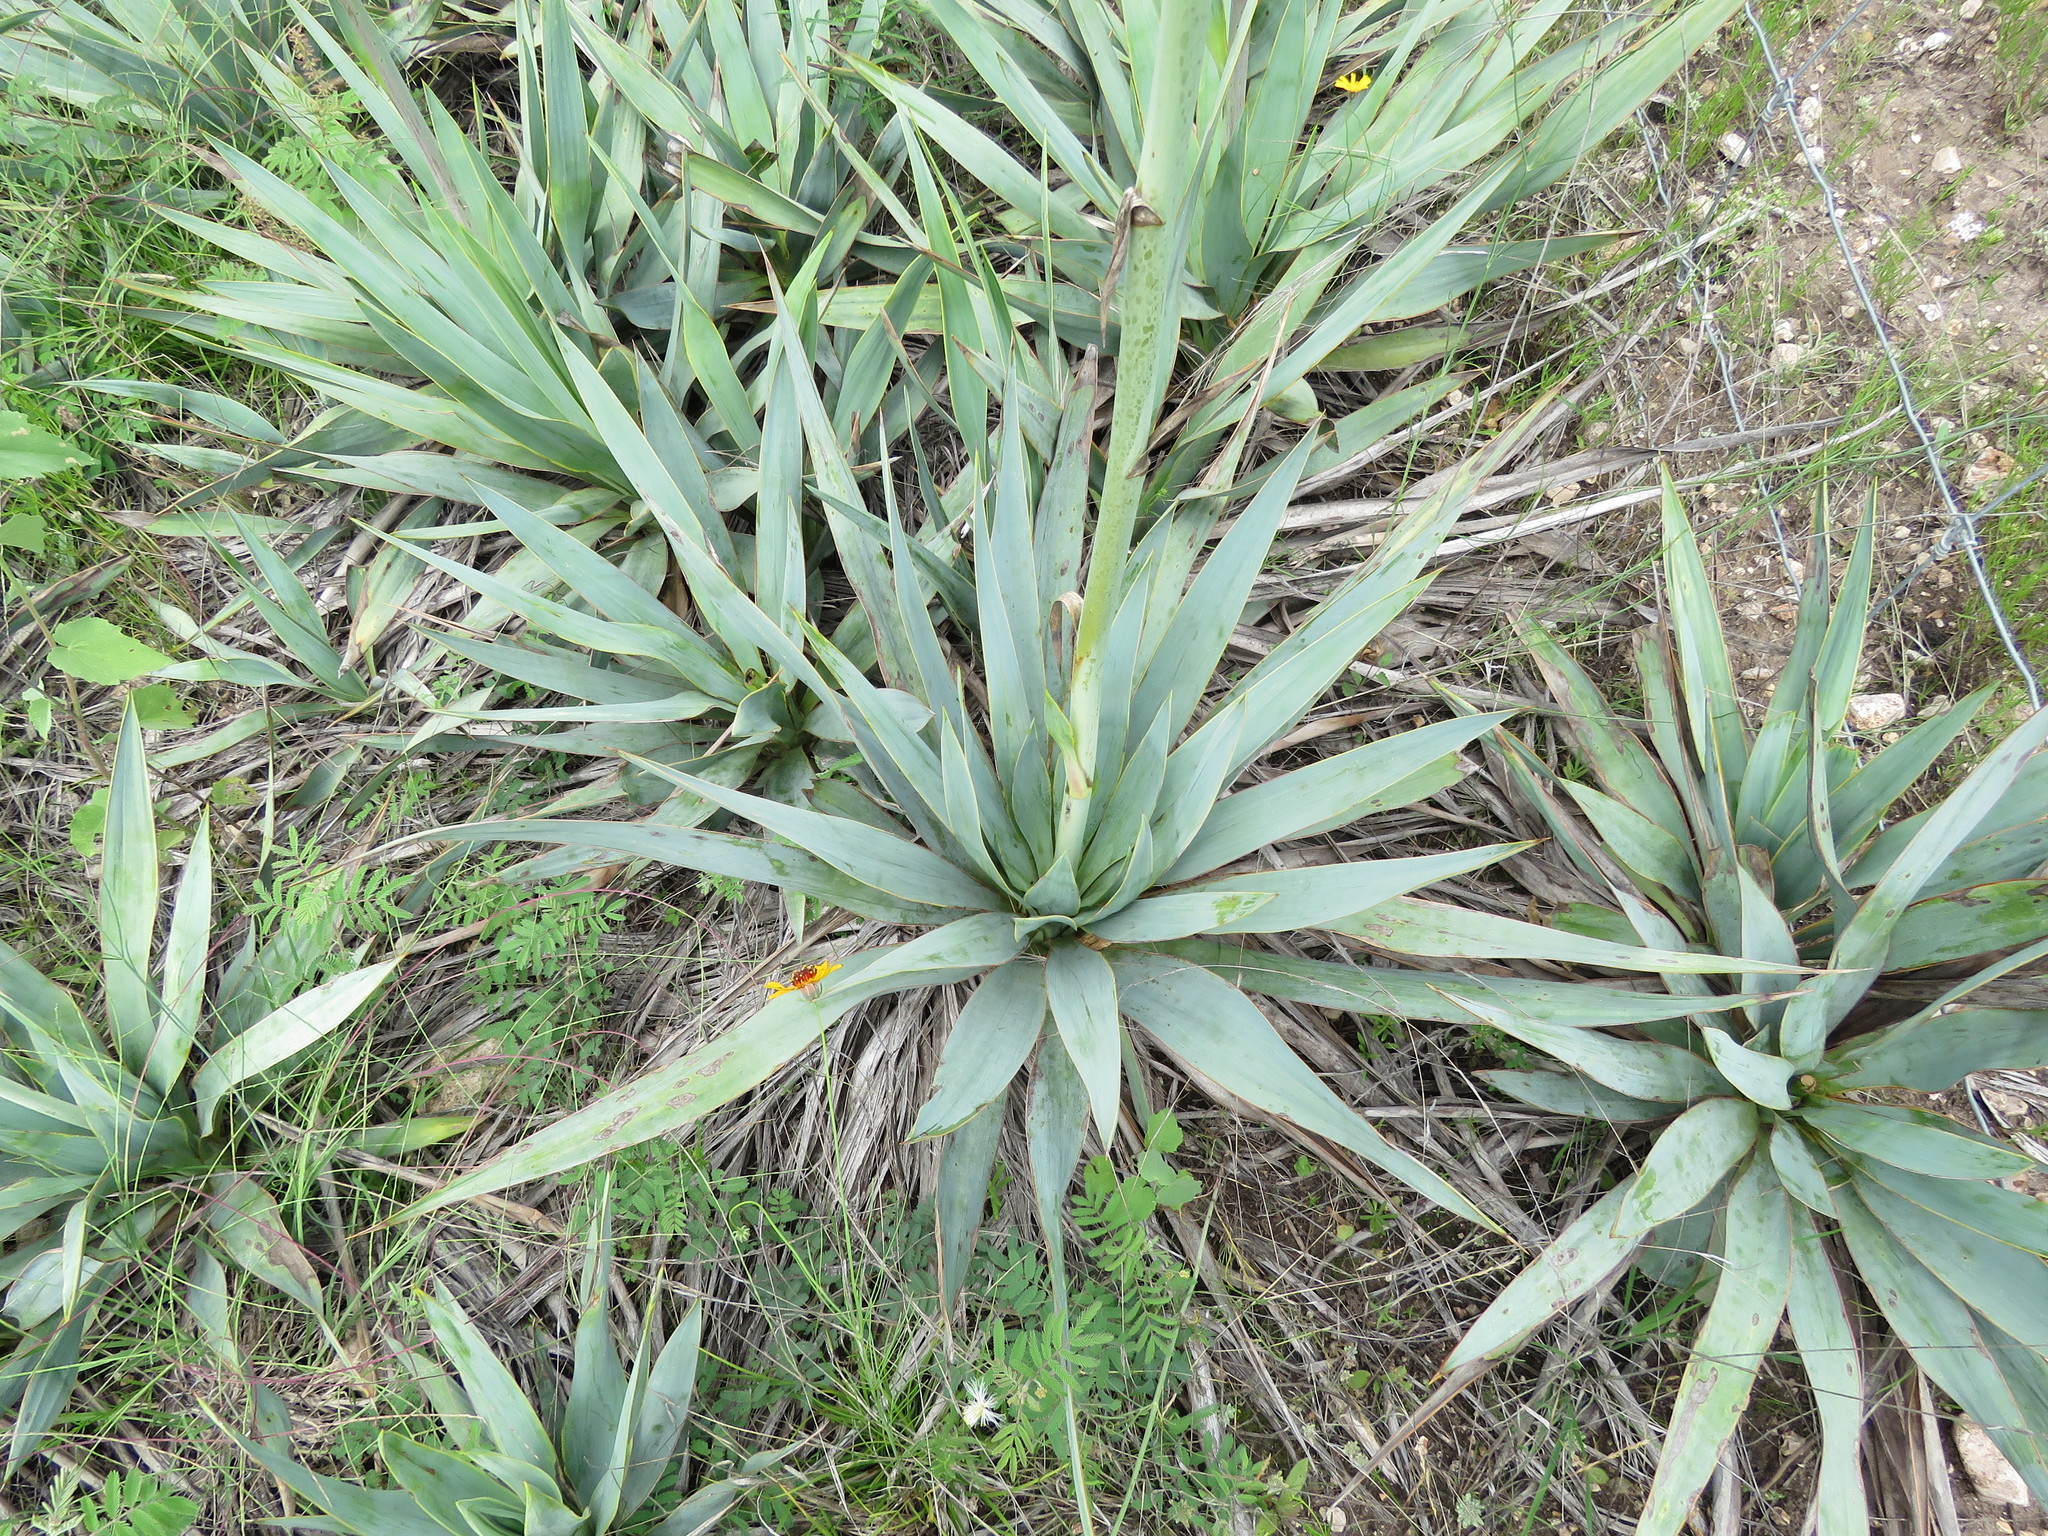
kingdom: Plantae
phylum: Tracheophyta
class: Liliopsida
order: Asparagales
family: Asparagaceae
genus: Yucca
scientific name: Yucca pallida
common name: Pale leaf yucca
